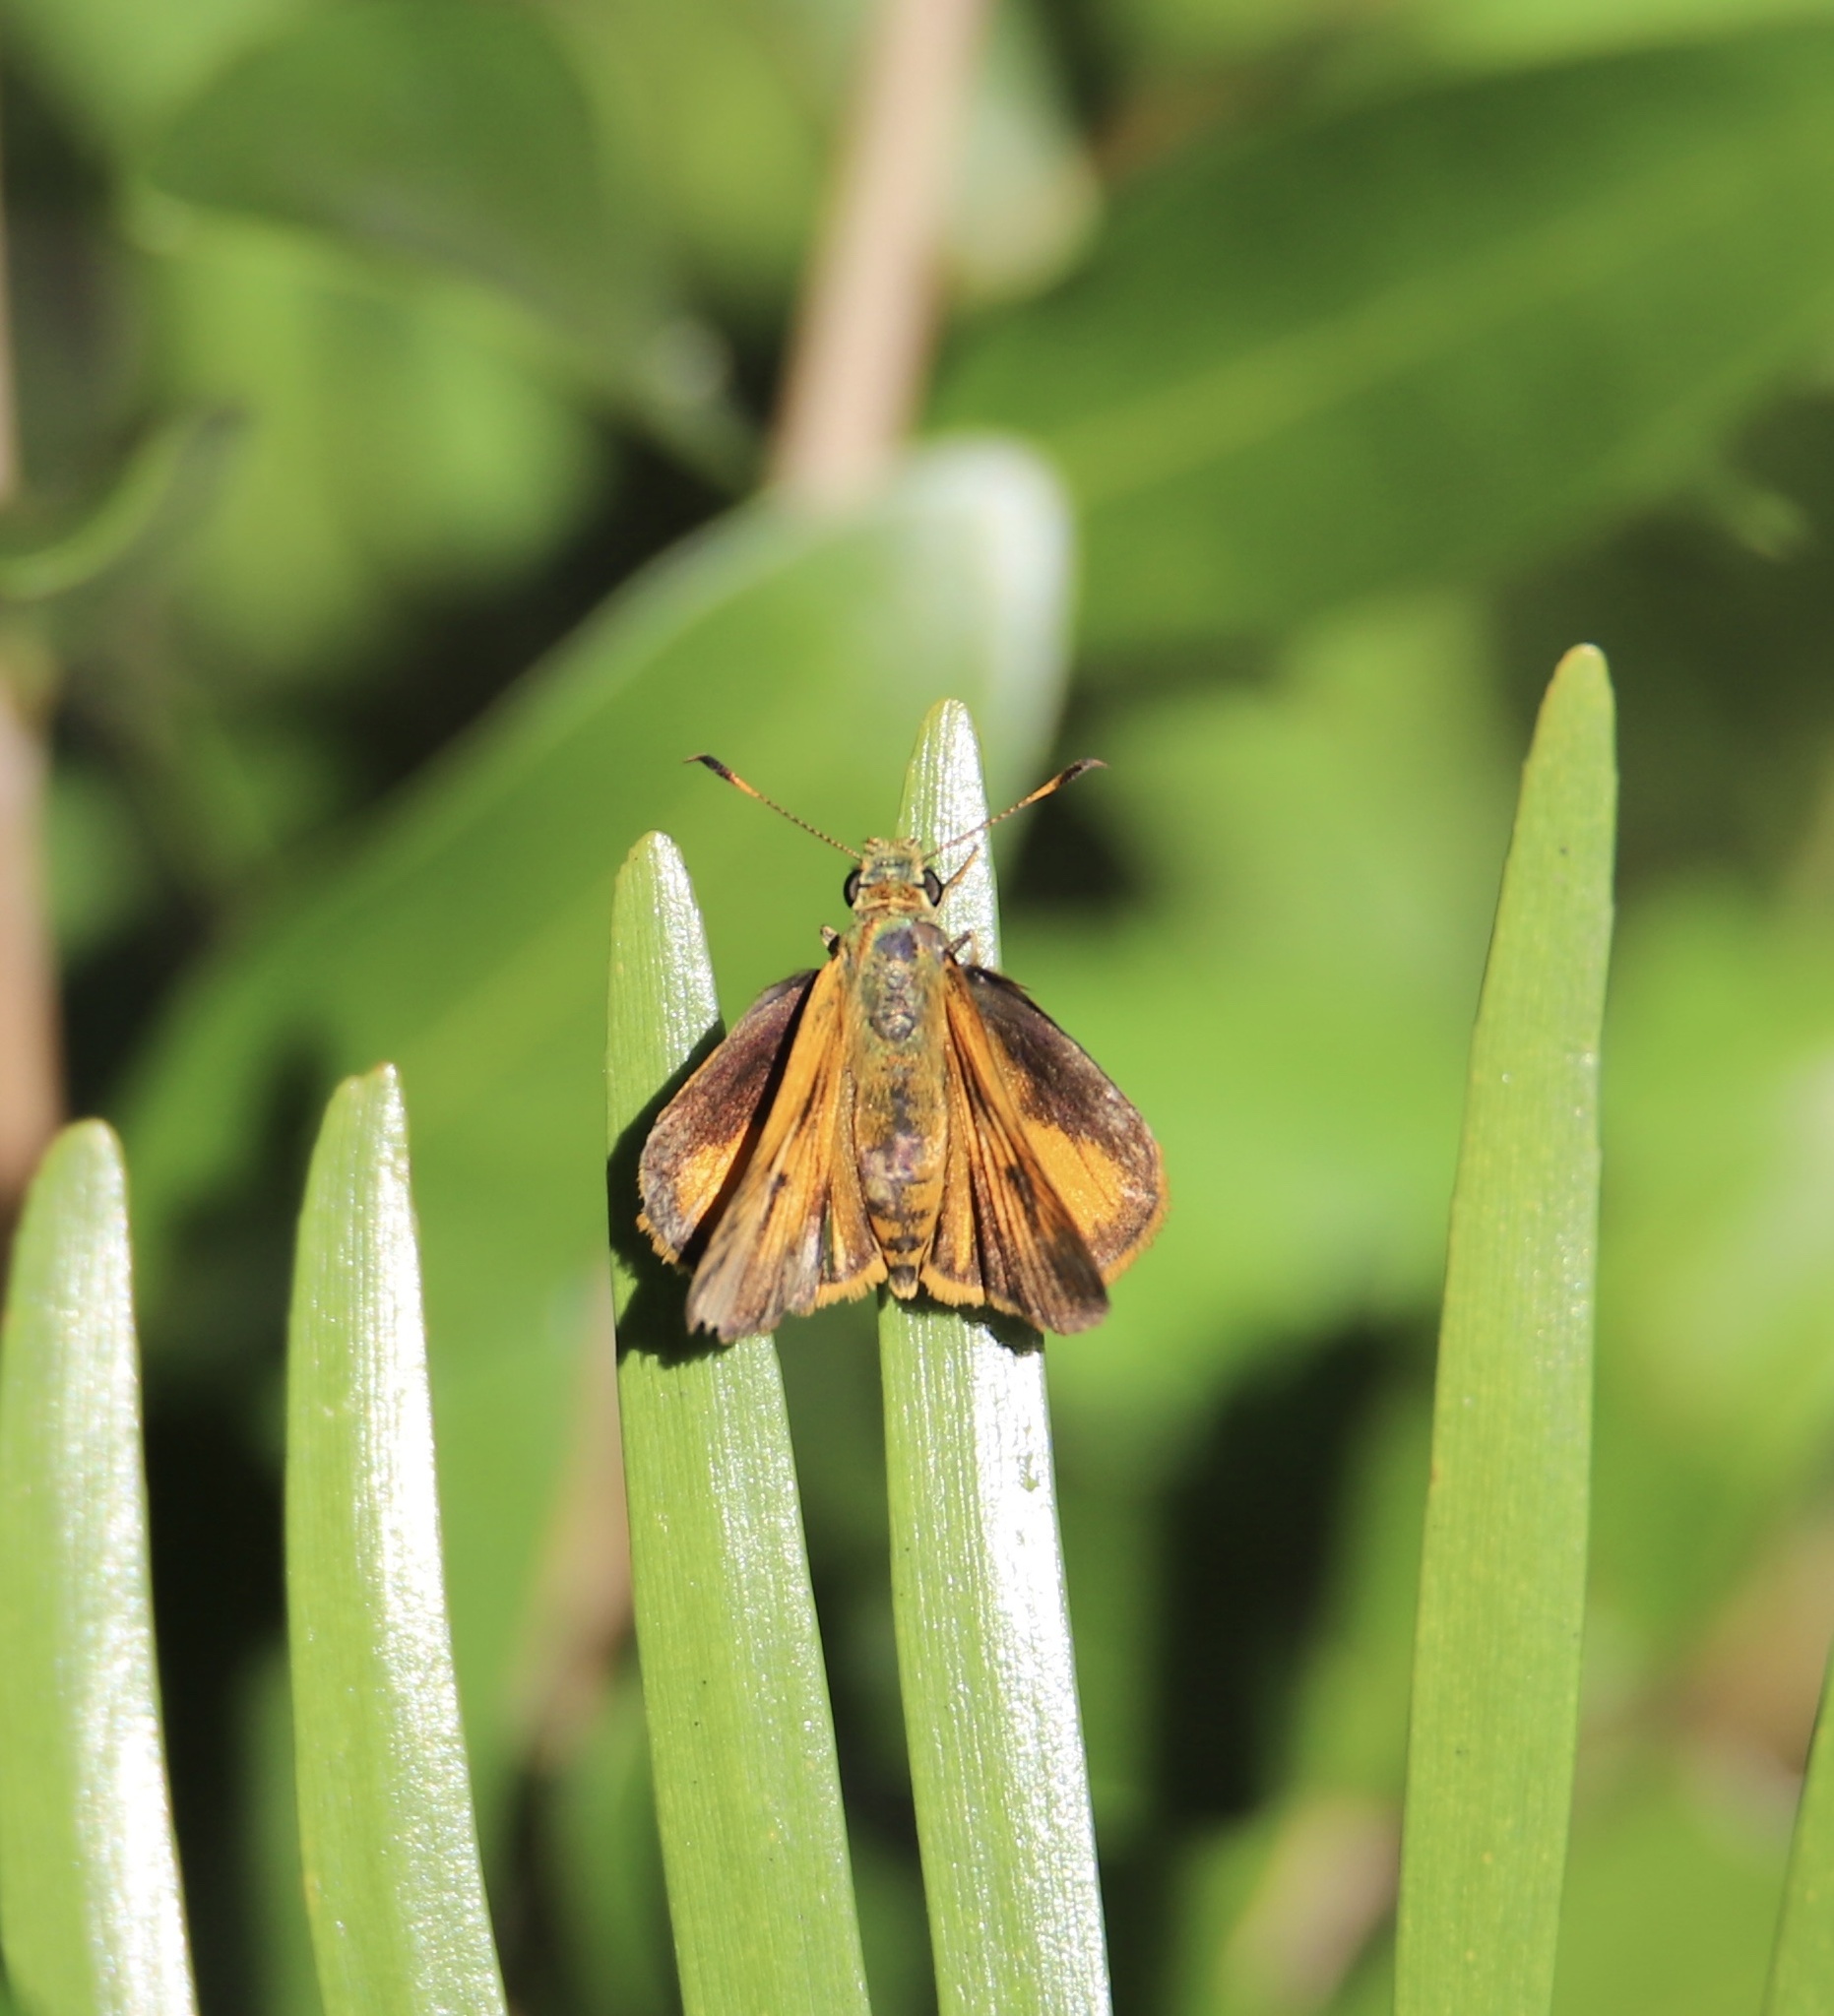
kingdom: Animalia
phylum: Arthropoda
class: Insecta
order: Lepidoptera
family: Hesperiidae
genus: Choranthus
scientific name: Choranthus haitensis
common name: Haitian skipper
